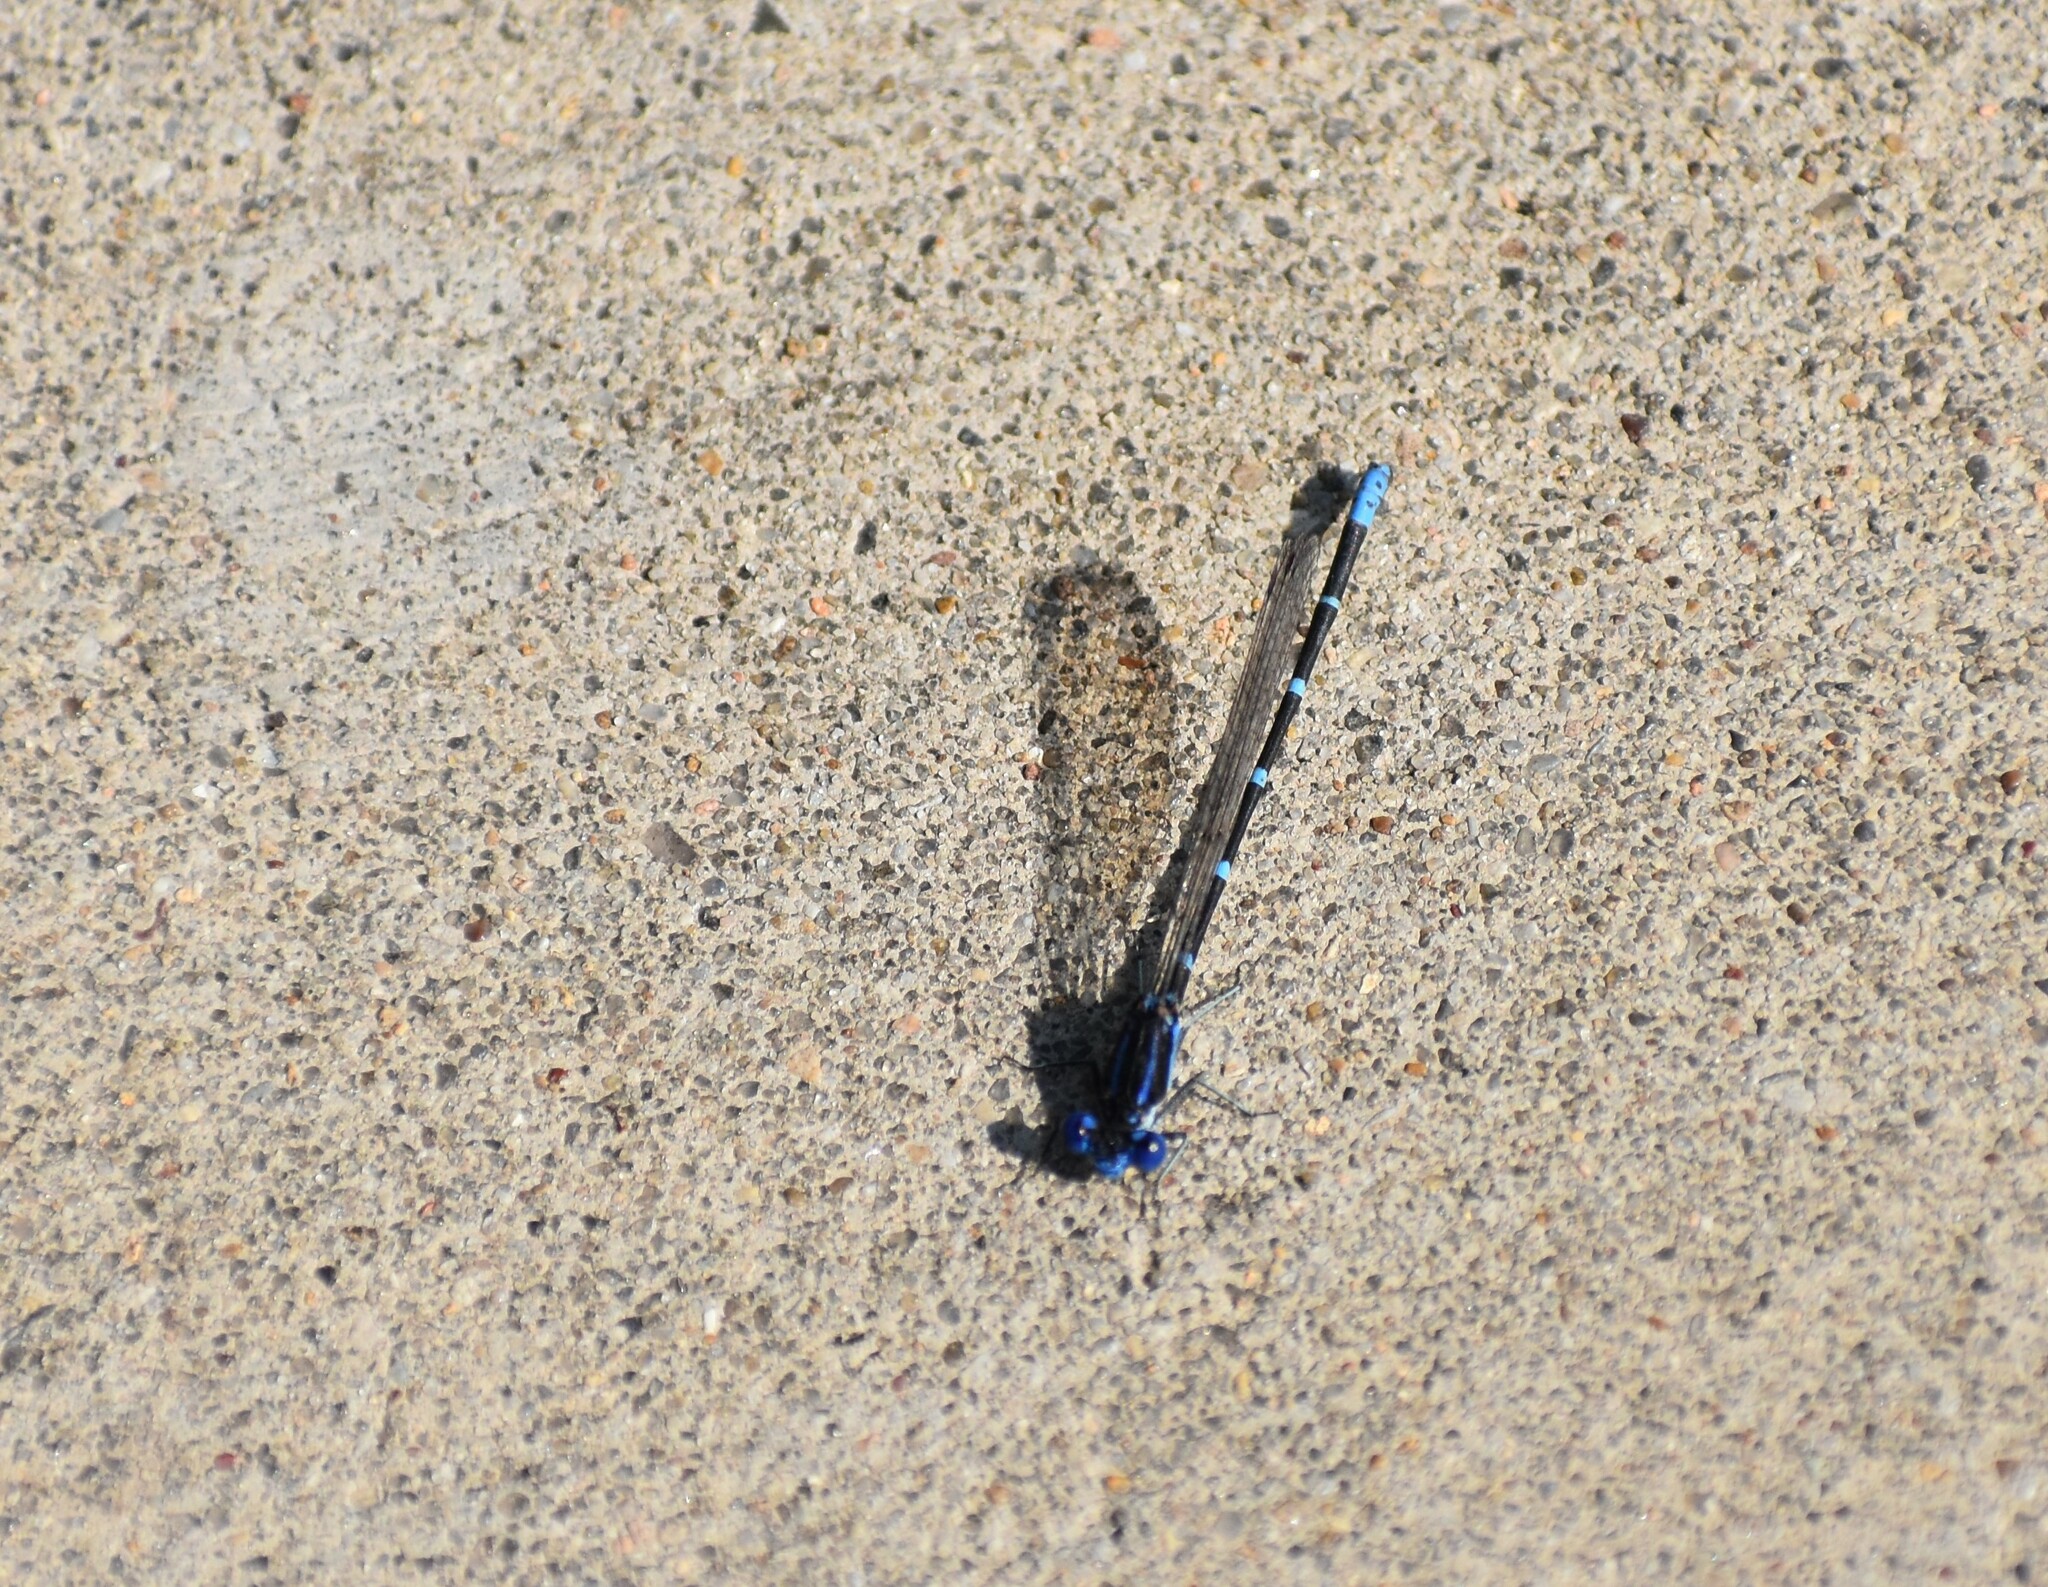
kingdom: Animalia
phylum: Arthropoda
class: Insecta
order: Odonata
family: Coenagrionidae
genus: Argia
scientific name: Argia sedula
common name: Blue-ringed dancer
